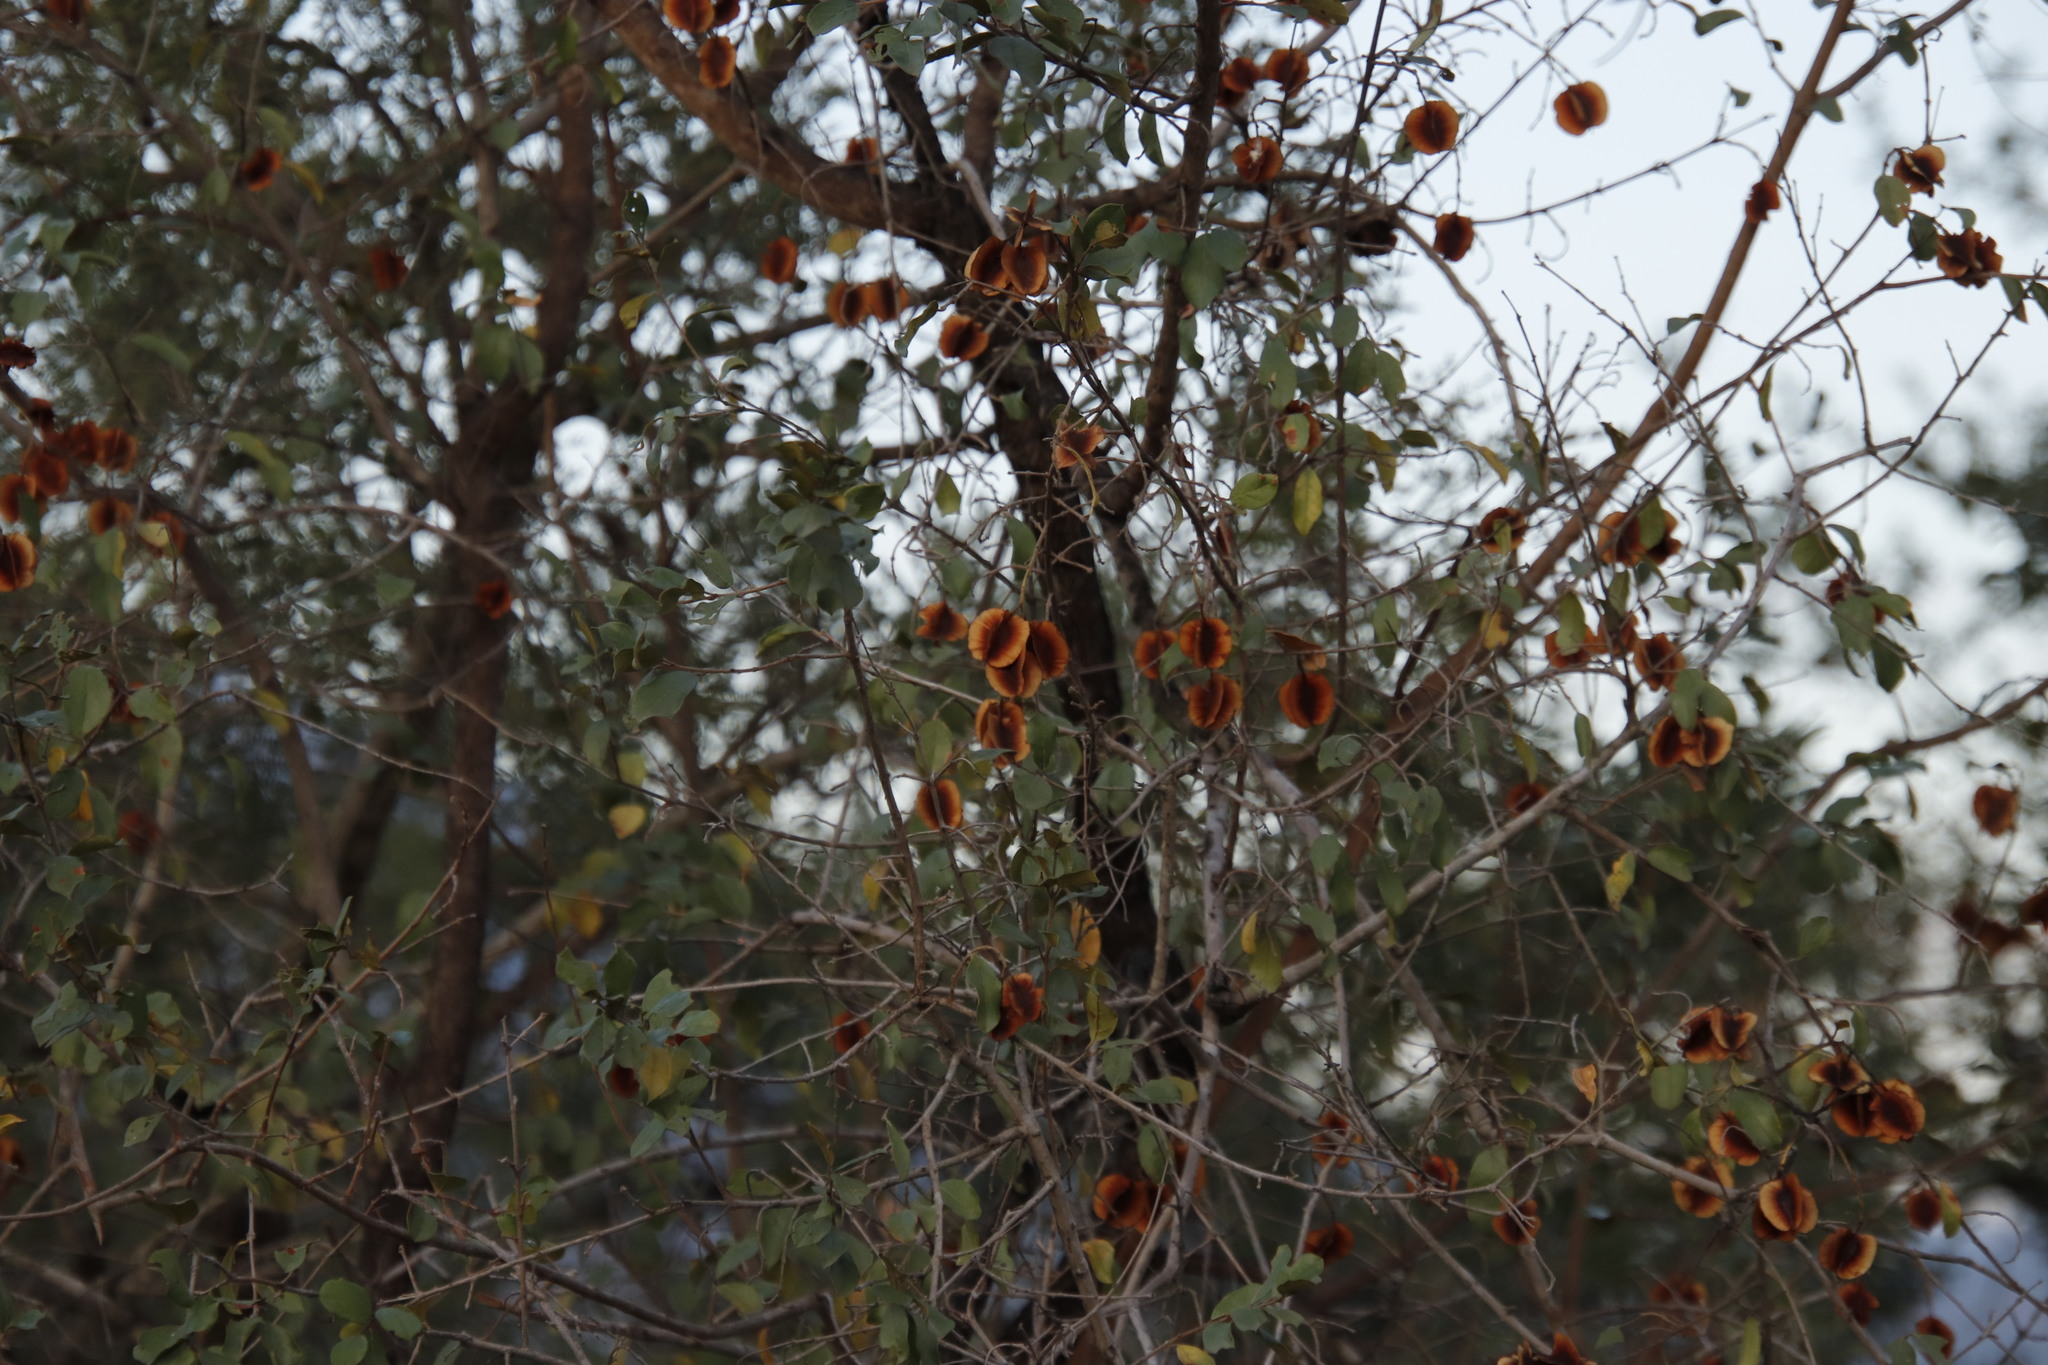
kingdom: Plantae
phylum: Tracheophyta
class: Magnoliopsida
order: Myrtales
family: Combretaceae
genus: Combretum
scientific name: Combretum hereroense
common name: Russet bushwillow
